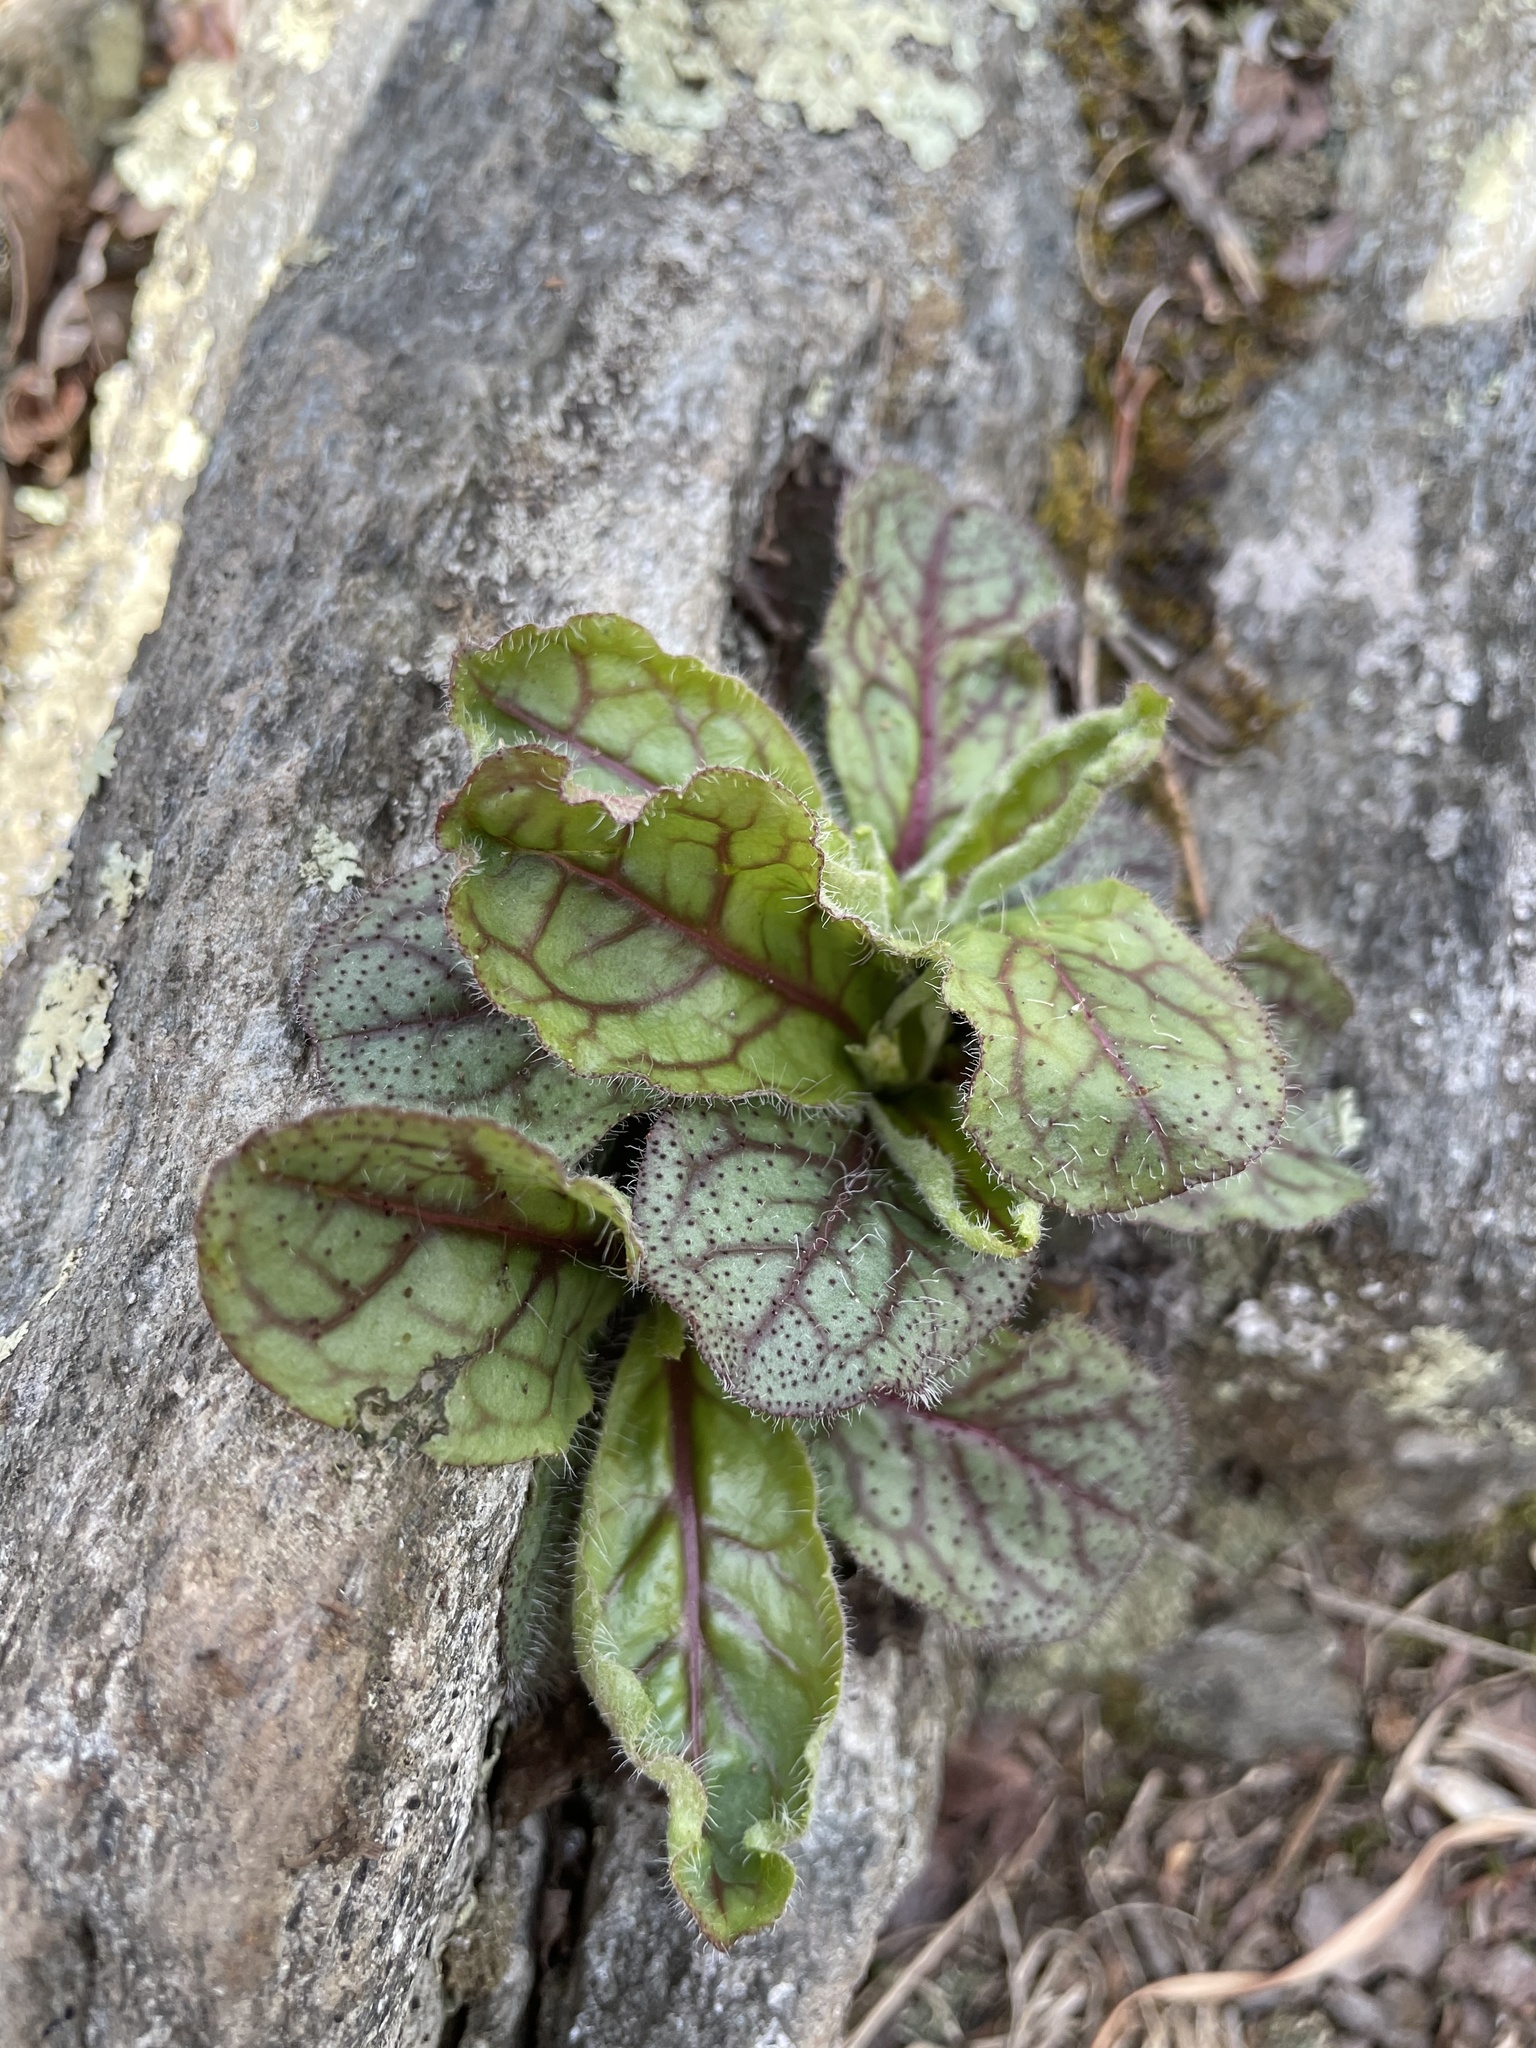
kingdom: Plantae
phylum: Tracheophyta
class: Magnoliopsida
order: Asterales
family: Asteraceae
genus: Hieracium
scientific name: Hieracium venosum
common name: Rattlesnake hawkweed
